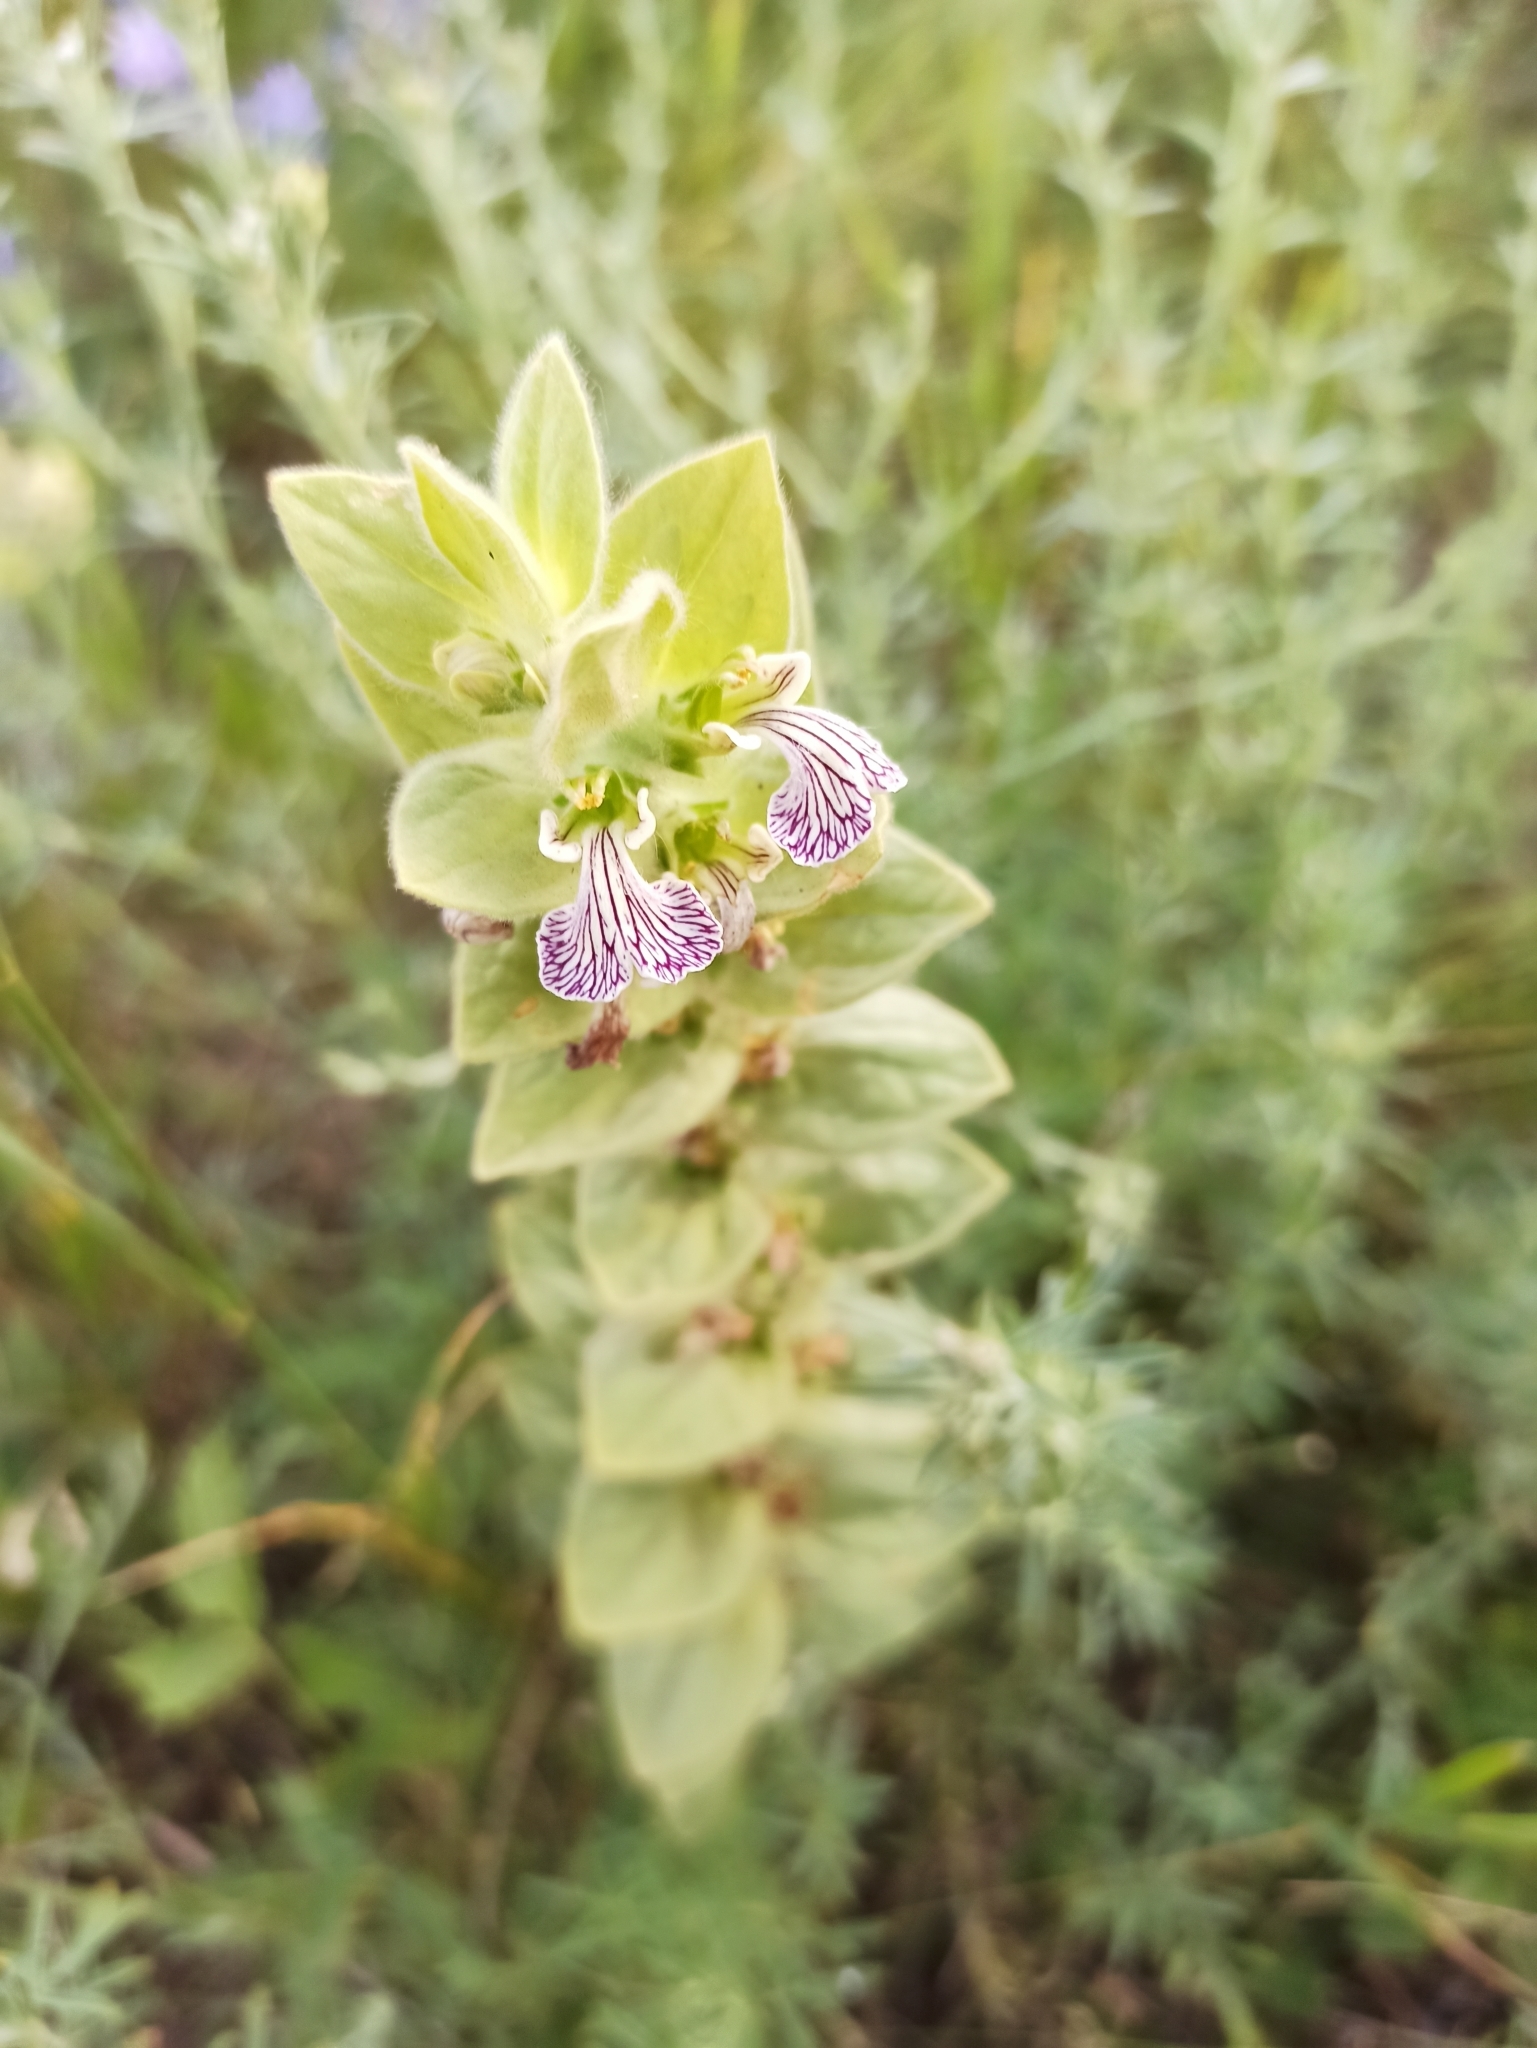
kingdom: Plantae
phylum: Tracheophyta
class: Magnoliopsida
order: Lamiales
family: Lamiaceae
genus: Ajuga
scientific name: Ajuga laxmannii
